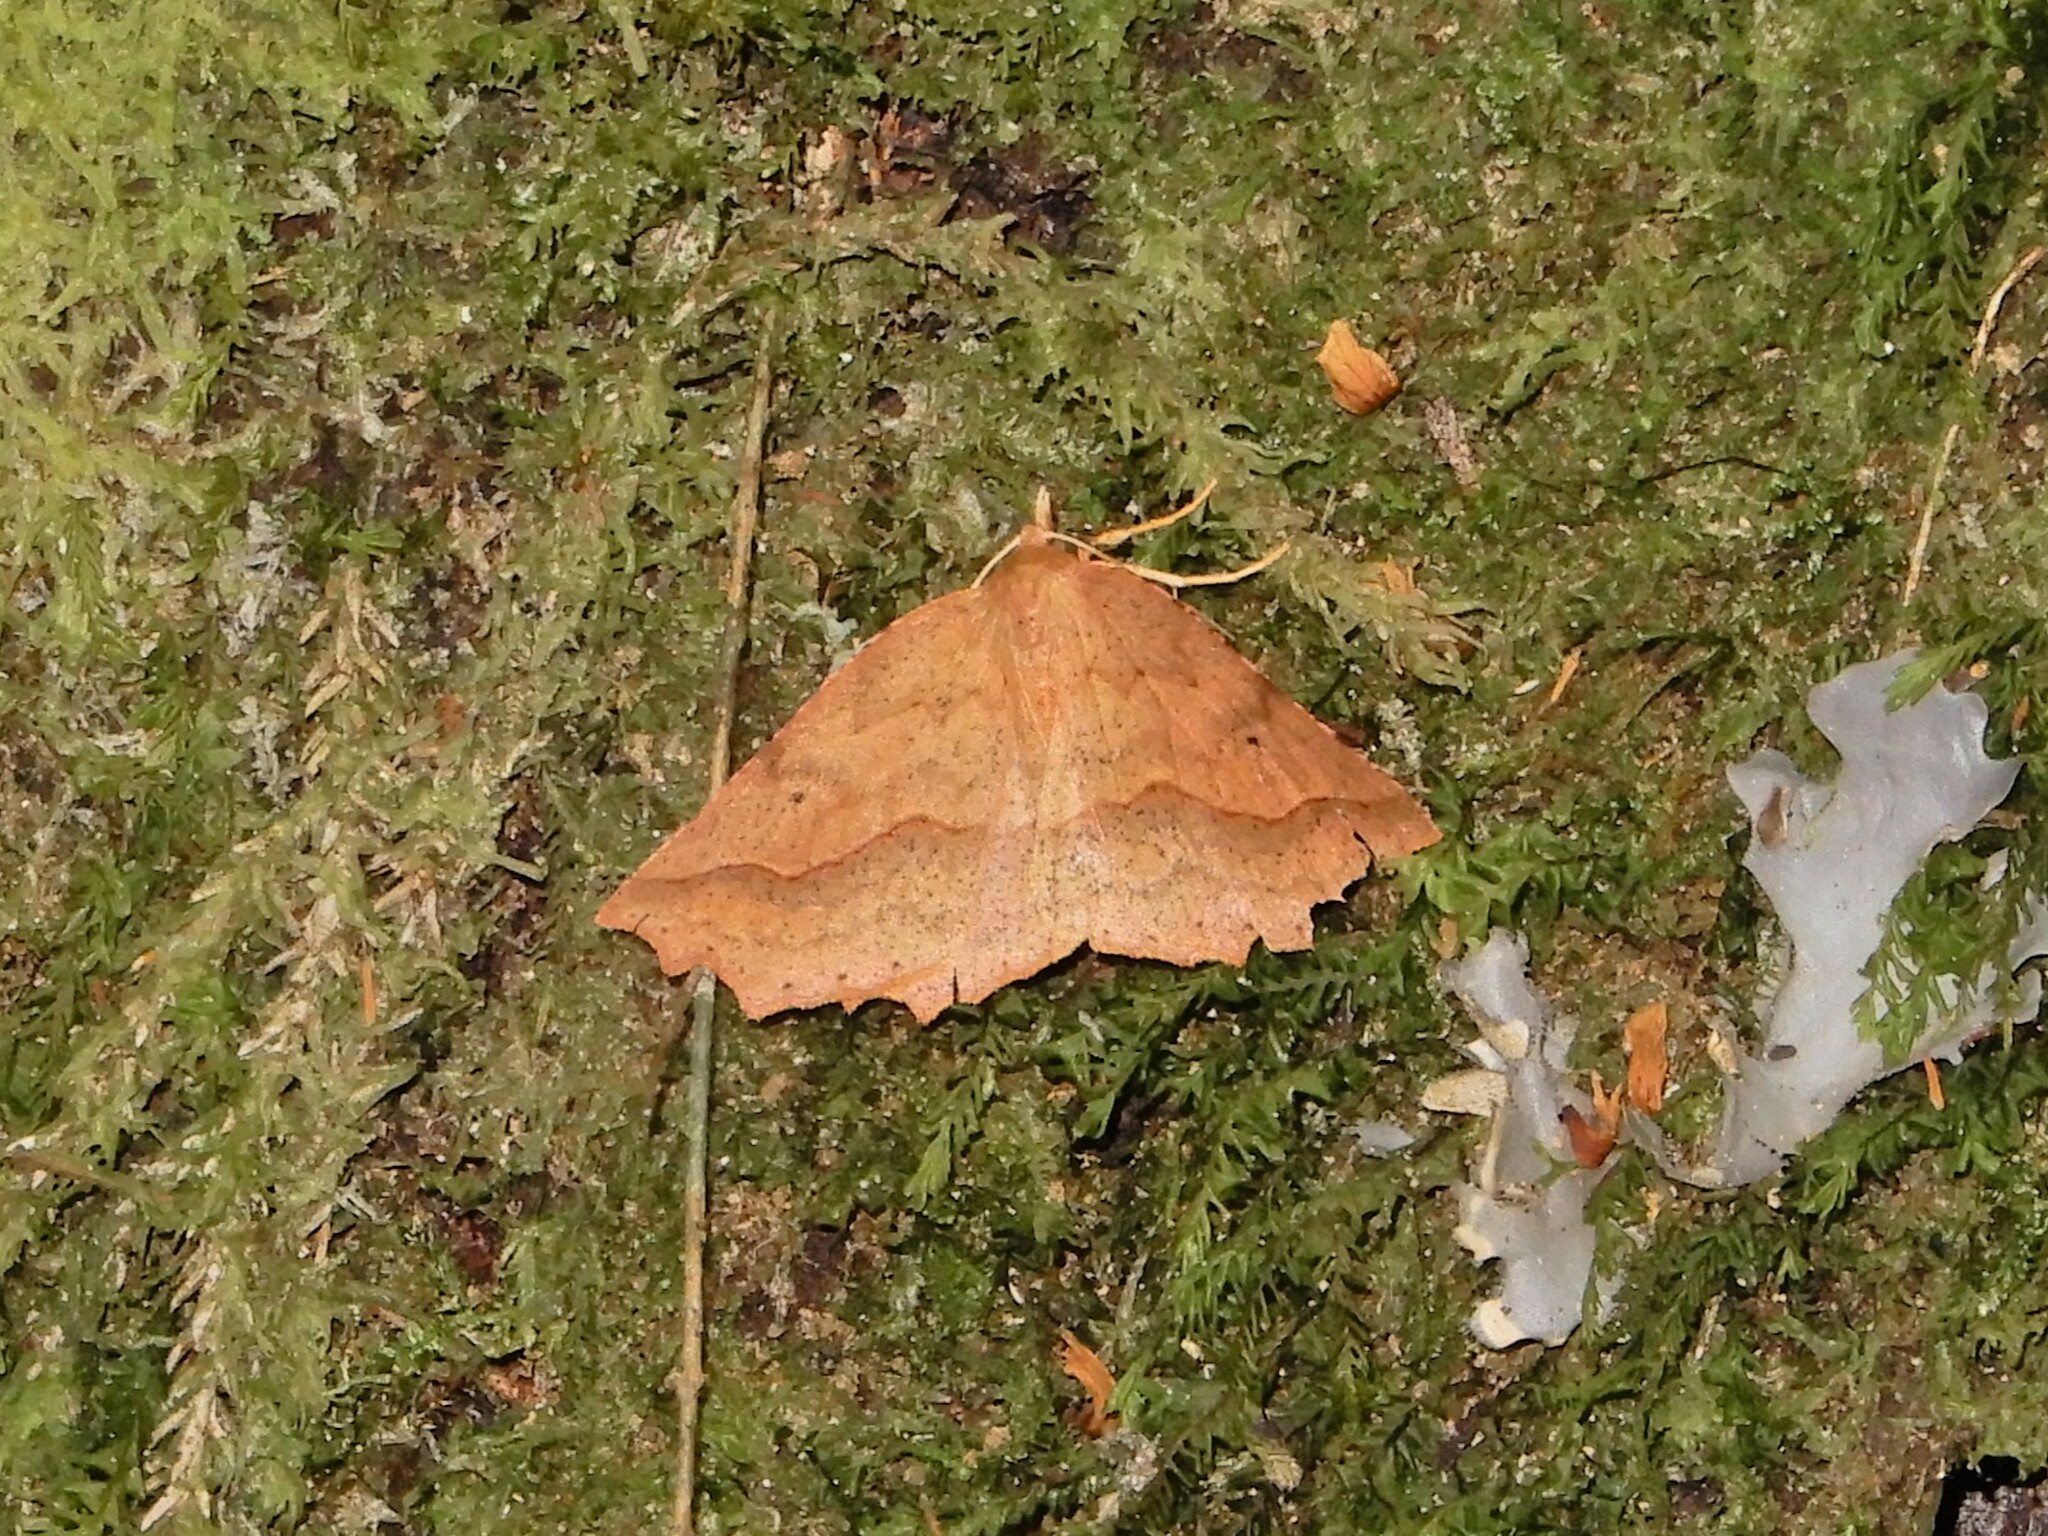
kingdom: Animalia
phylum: Arthropoda
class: Insecta
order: Lepidoptera
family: Geometridae
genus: Ischalis
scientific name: Ischalis variabilis
